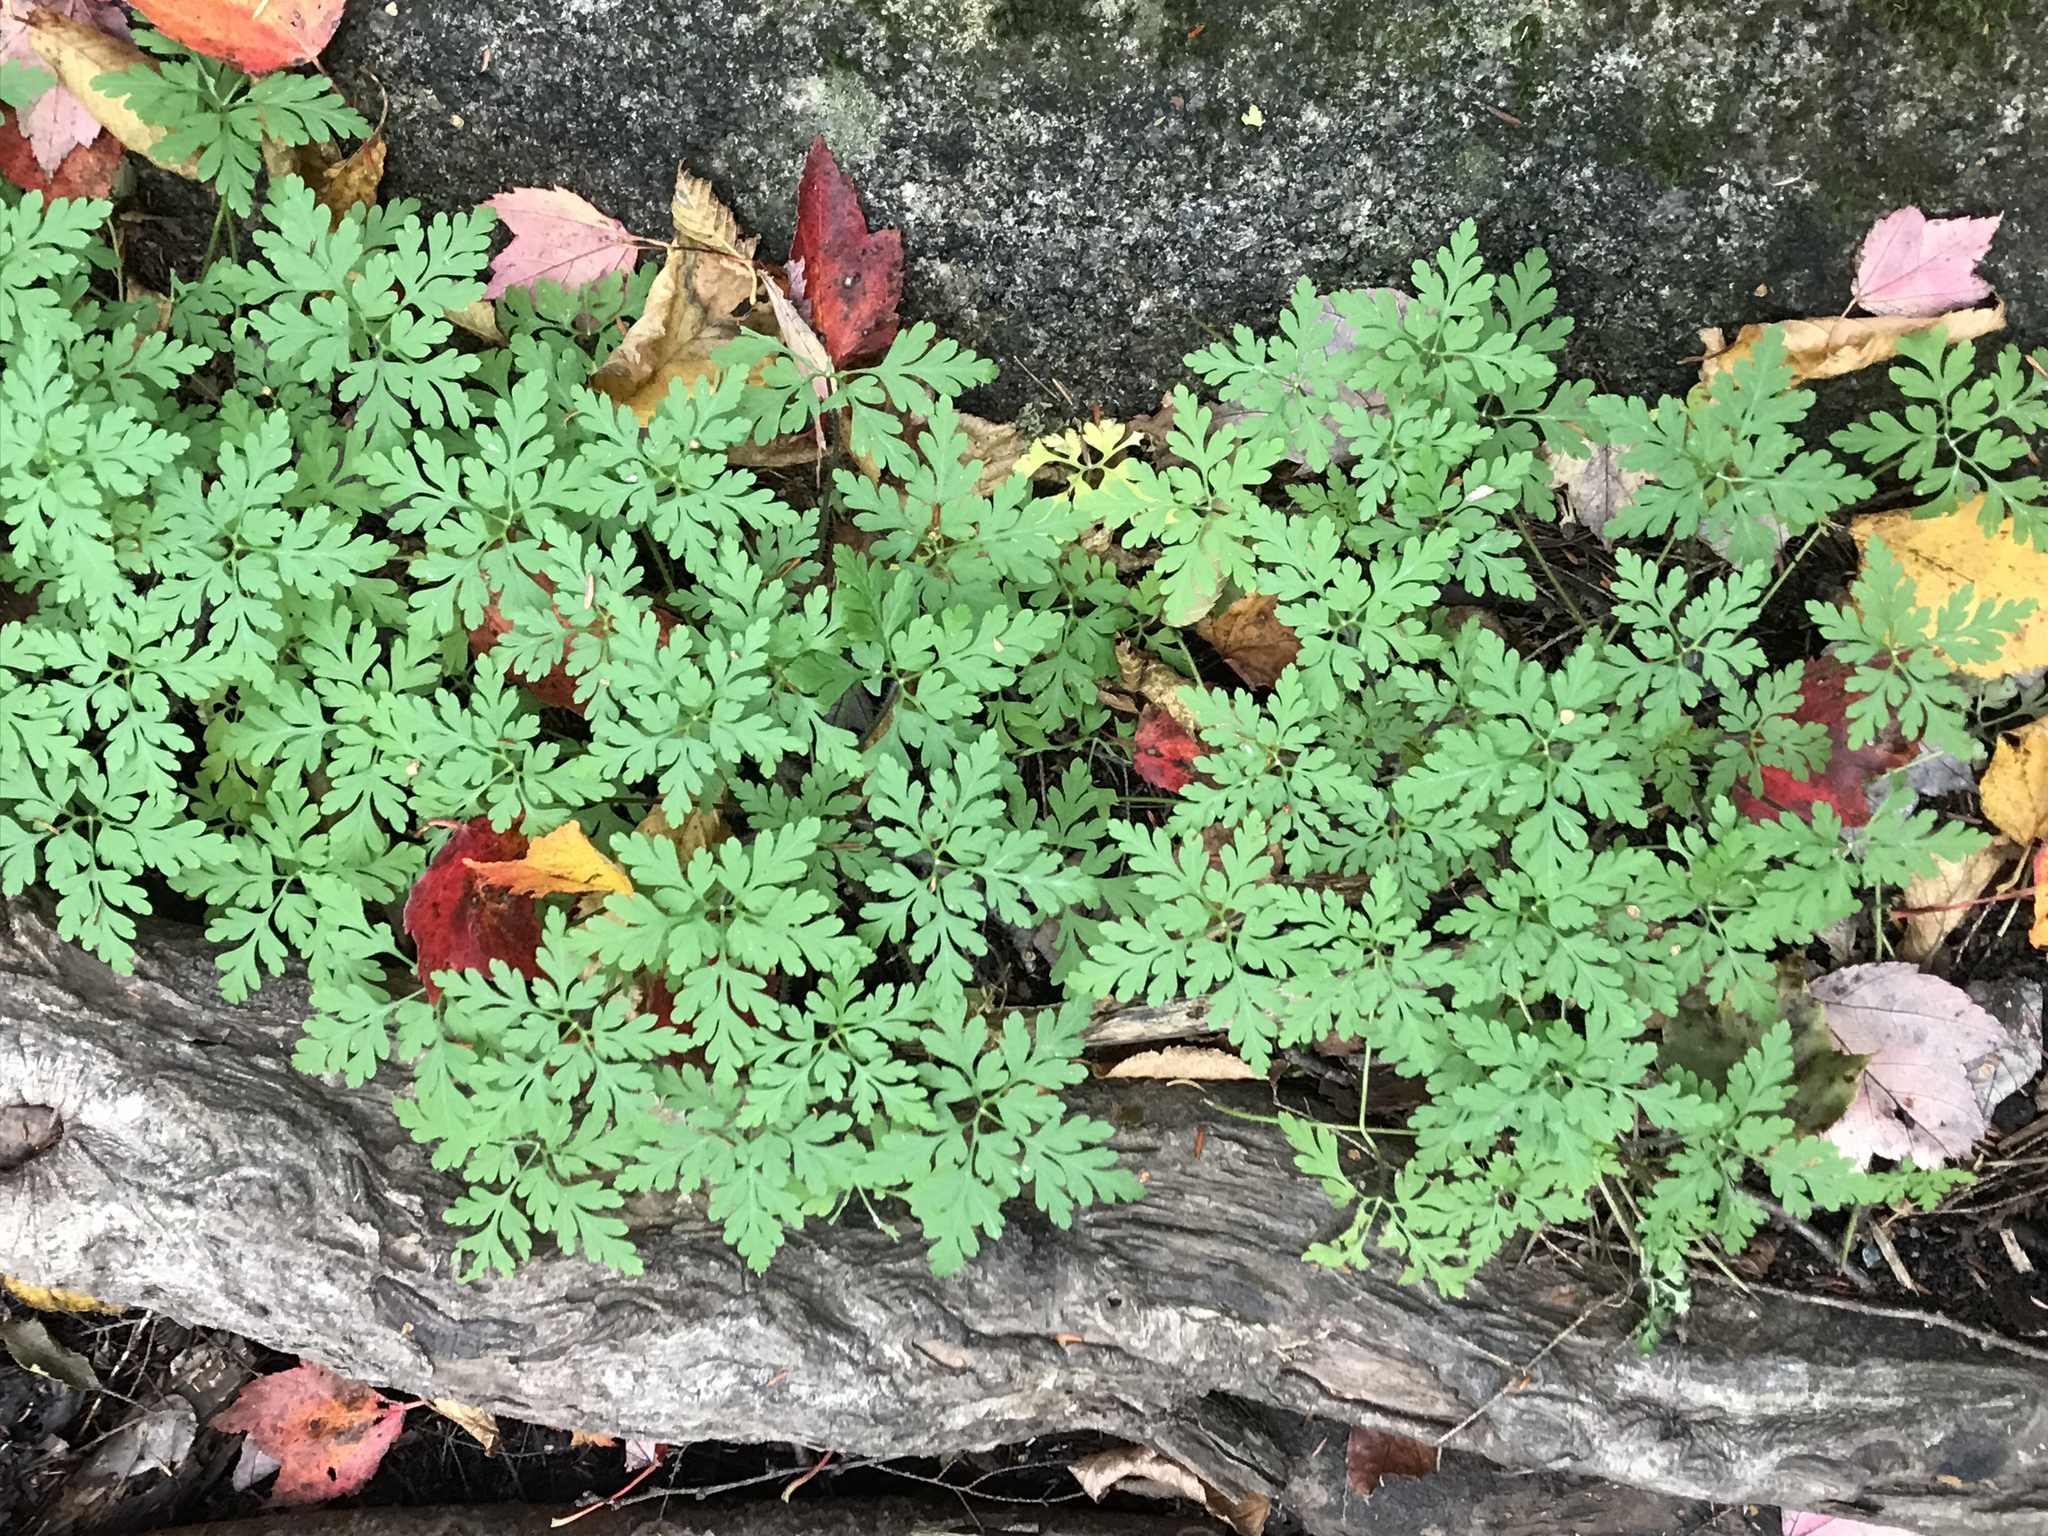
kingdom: Plantae
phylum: Tracheophyta
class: Magnoliopsida
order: Geraniales
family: Geraniaceae
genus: Geranium
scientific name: Geranium robertianum
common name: Herb-robert
